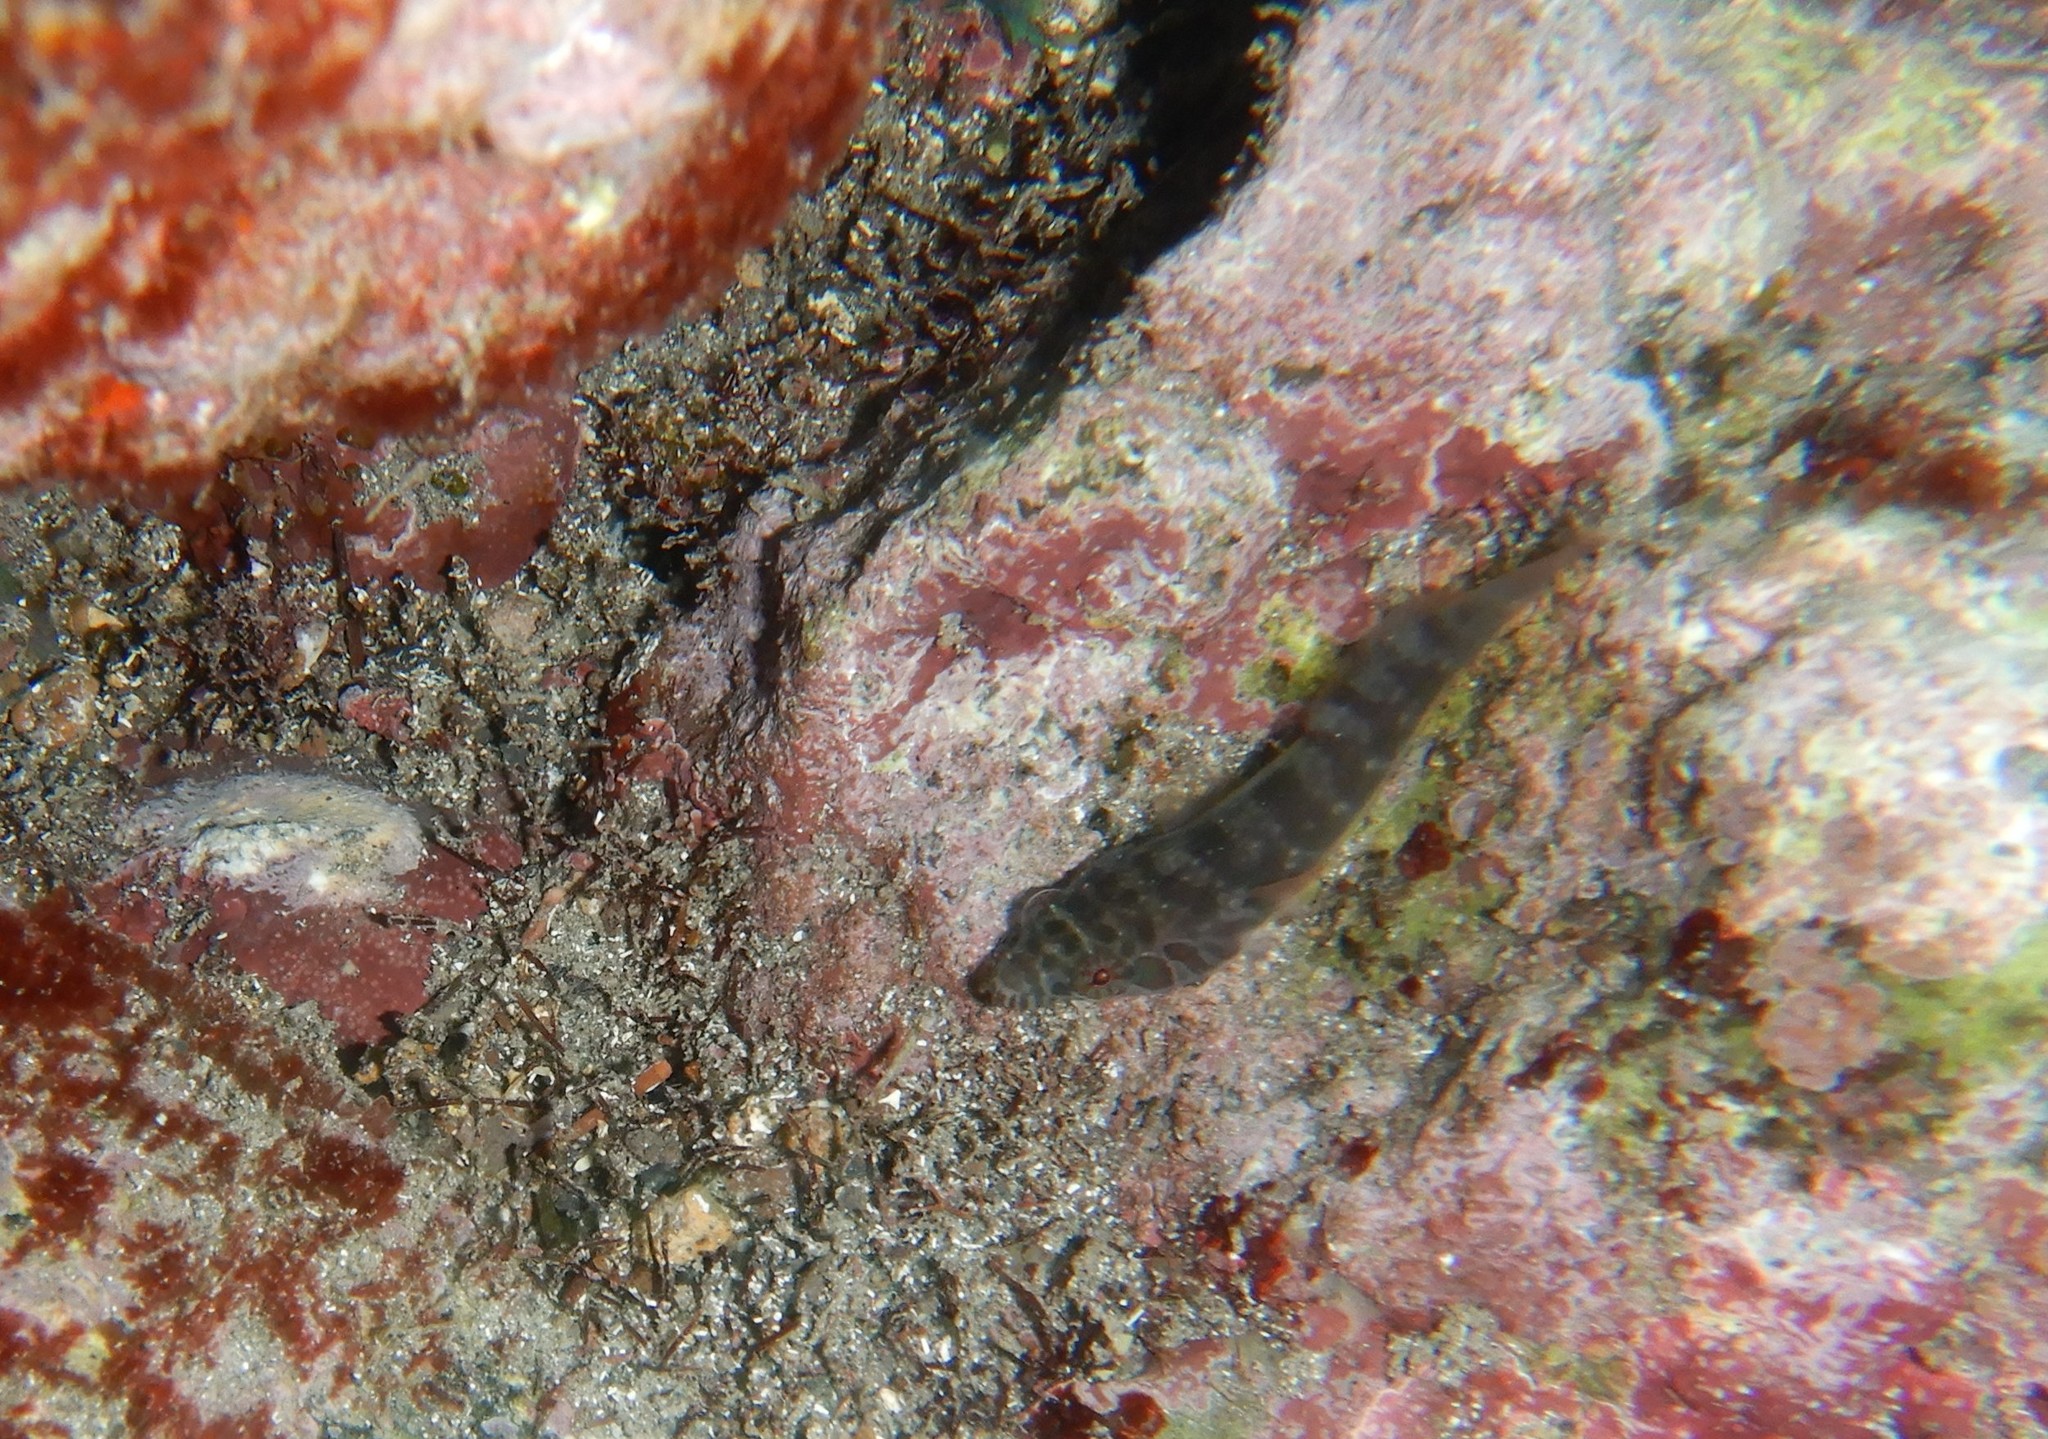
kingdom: Animalia
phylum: Chordata
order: Gobiesociformes
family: Gobiesocidae
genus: Lepadogaster
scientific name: Lepadogaster candolii
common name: Connemarra clingfish
